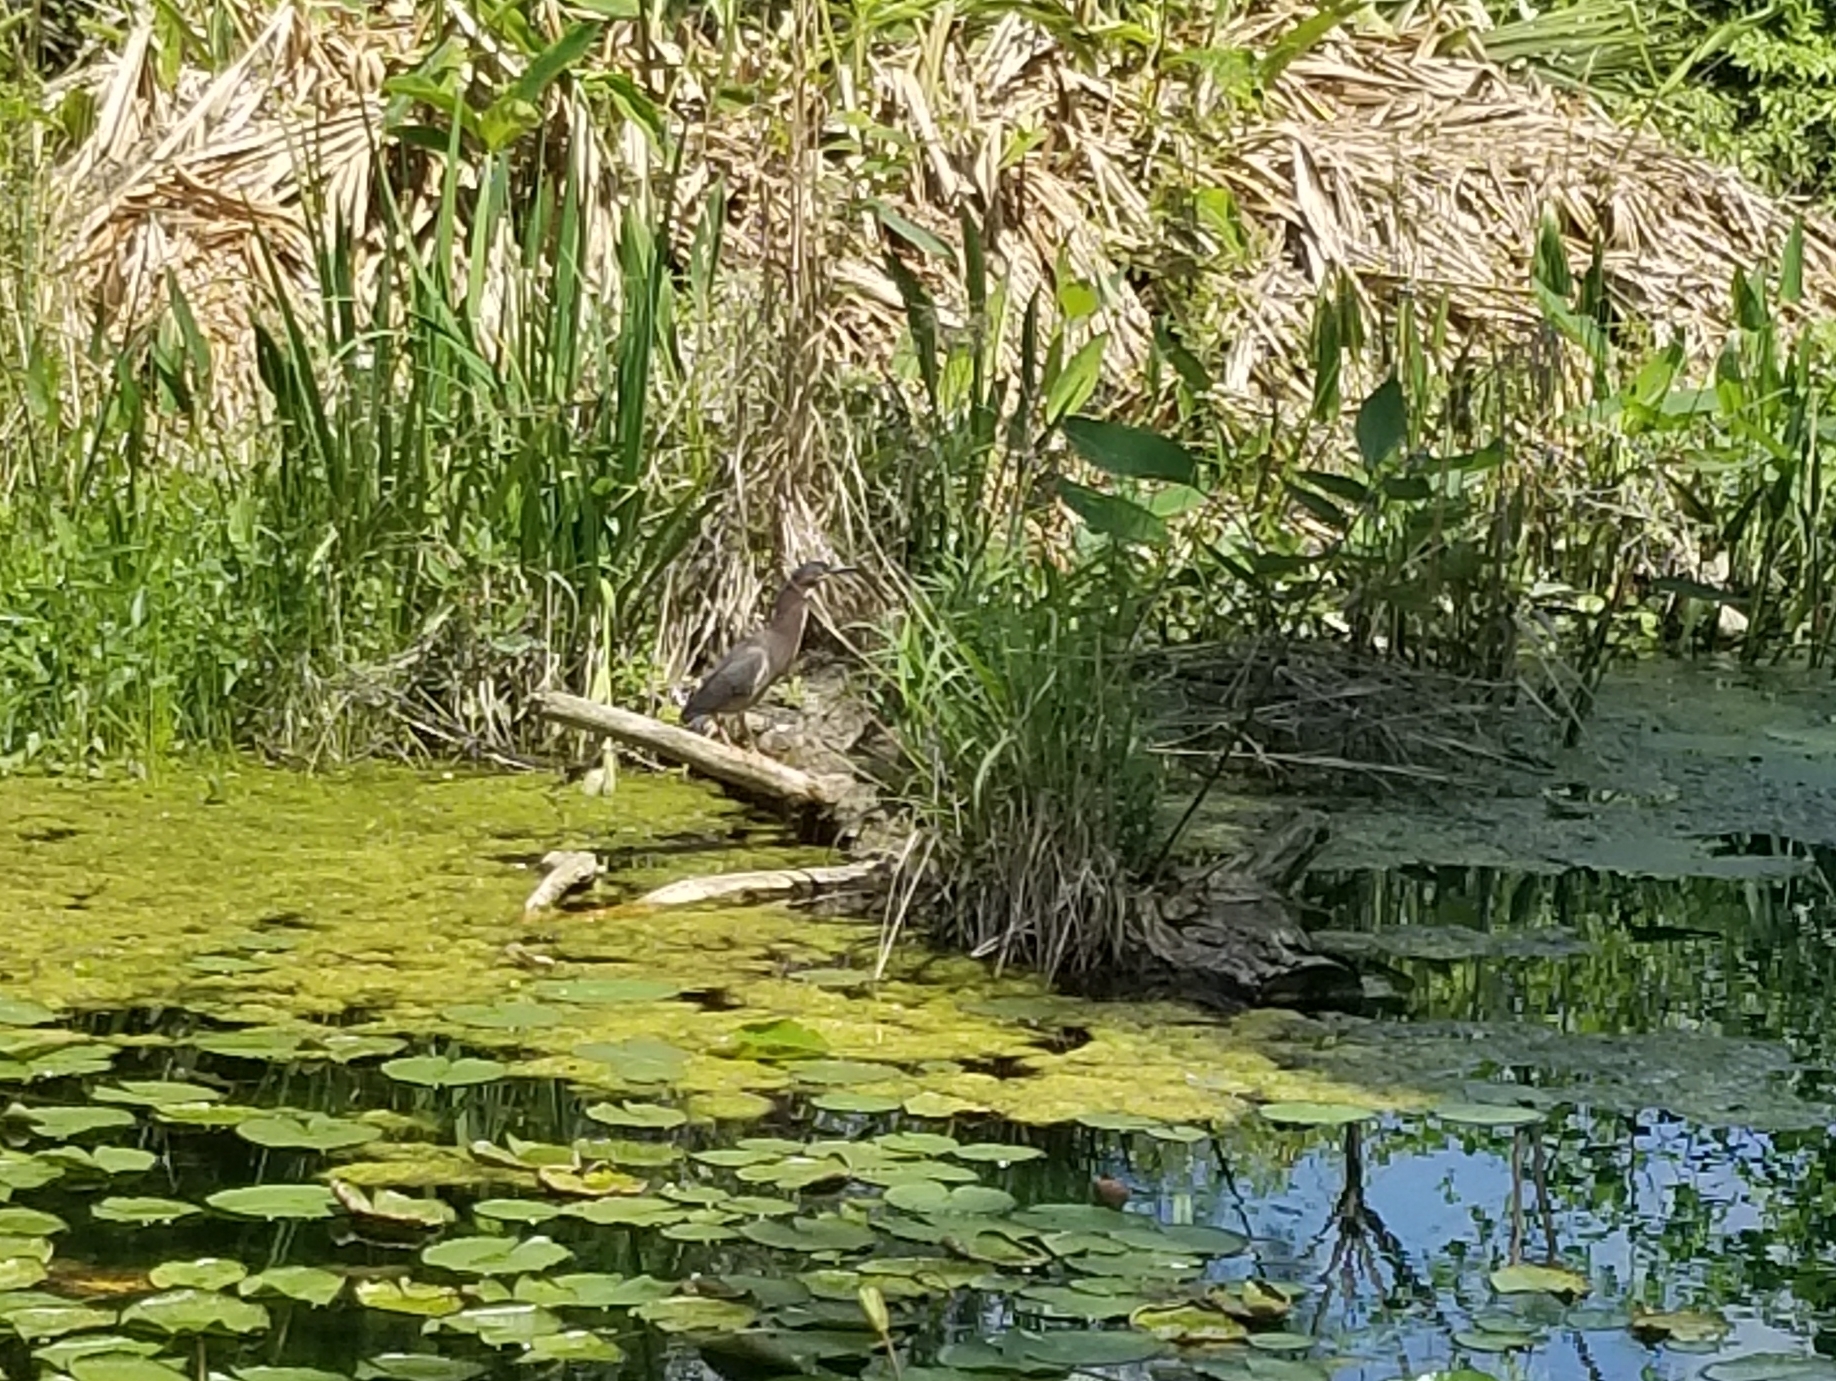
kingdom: Animalia
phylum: Chordata
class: Aves
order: Pelecaniformes
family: Ardeidae
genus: Butorides
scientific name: Butorides virescens
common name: Green heron
